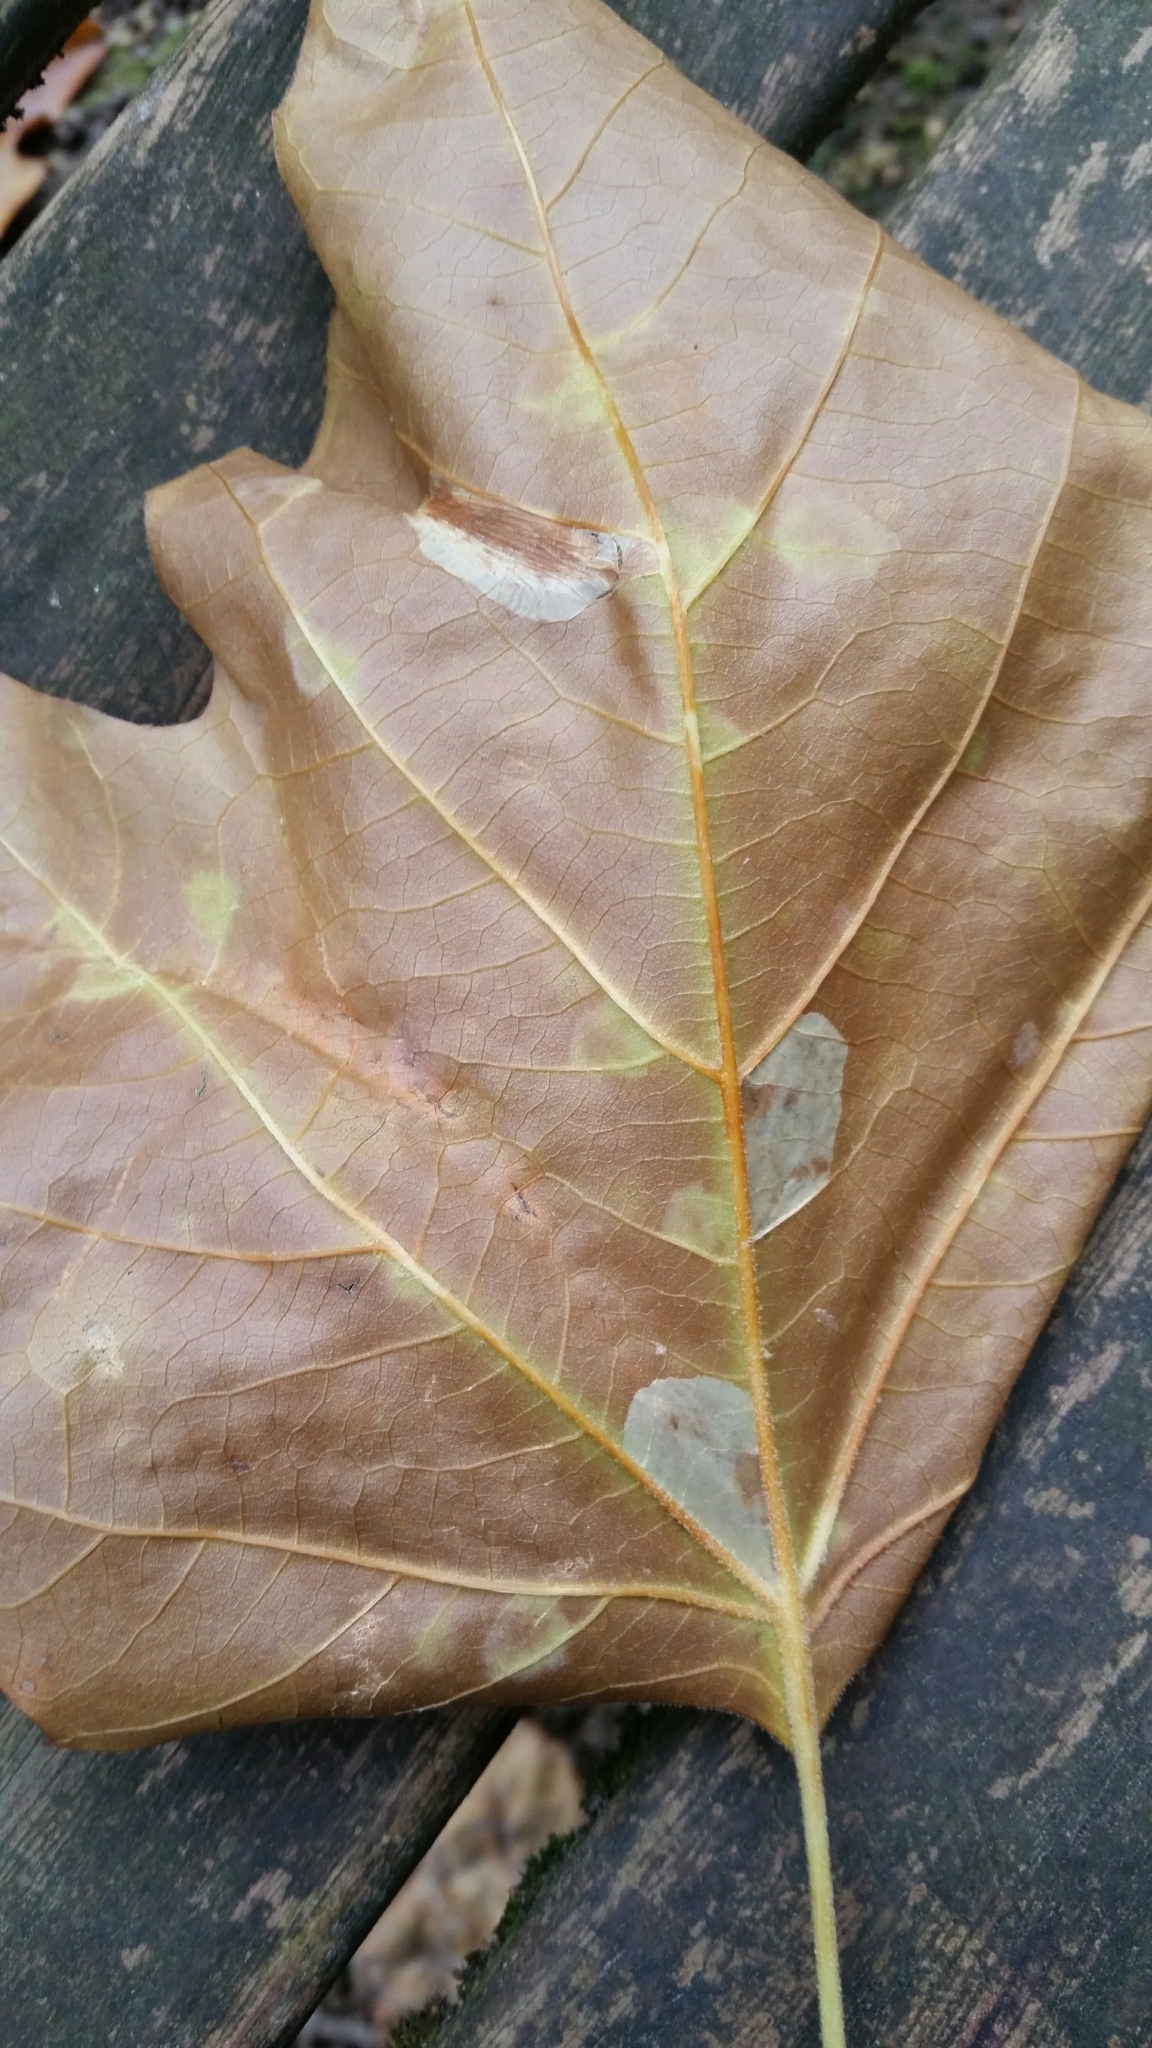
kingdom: Animalia
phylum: Arthropoda
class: Insecta
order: Lepidoptera
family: Gracillariidae
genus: Phyllonorycter
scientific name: Phyllonorycter platani
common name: London midget
